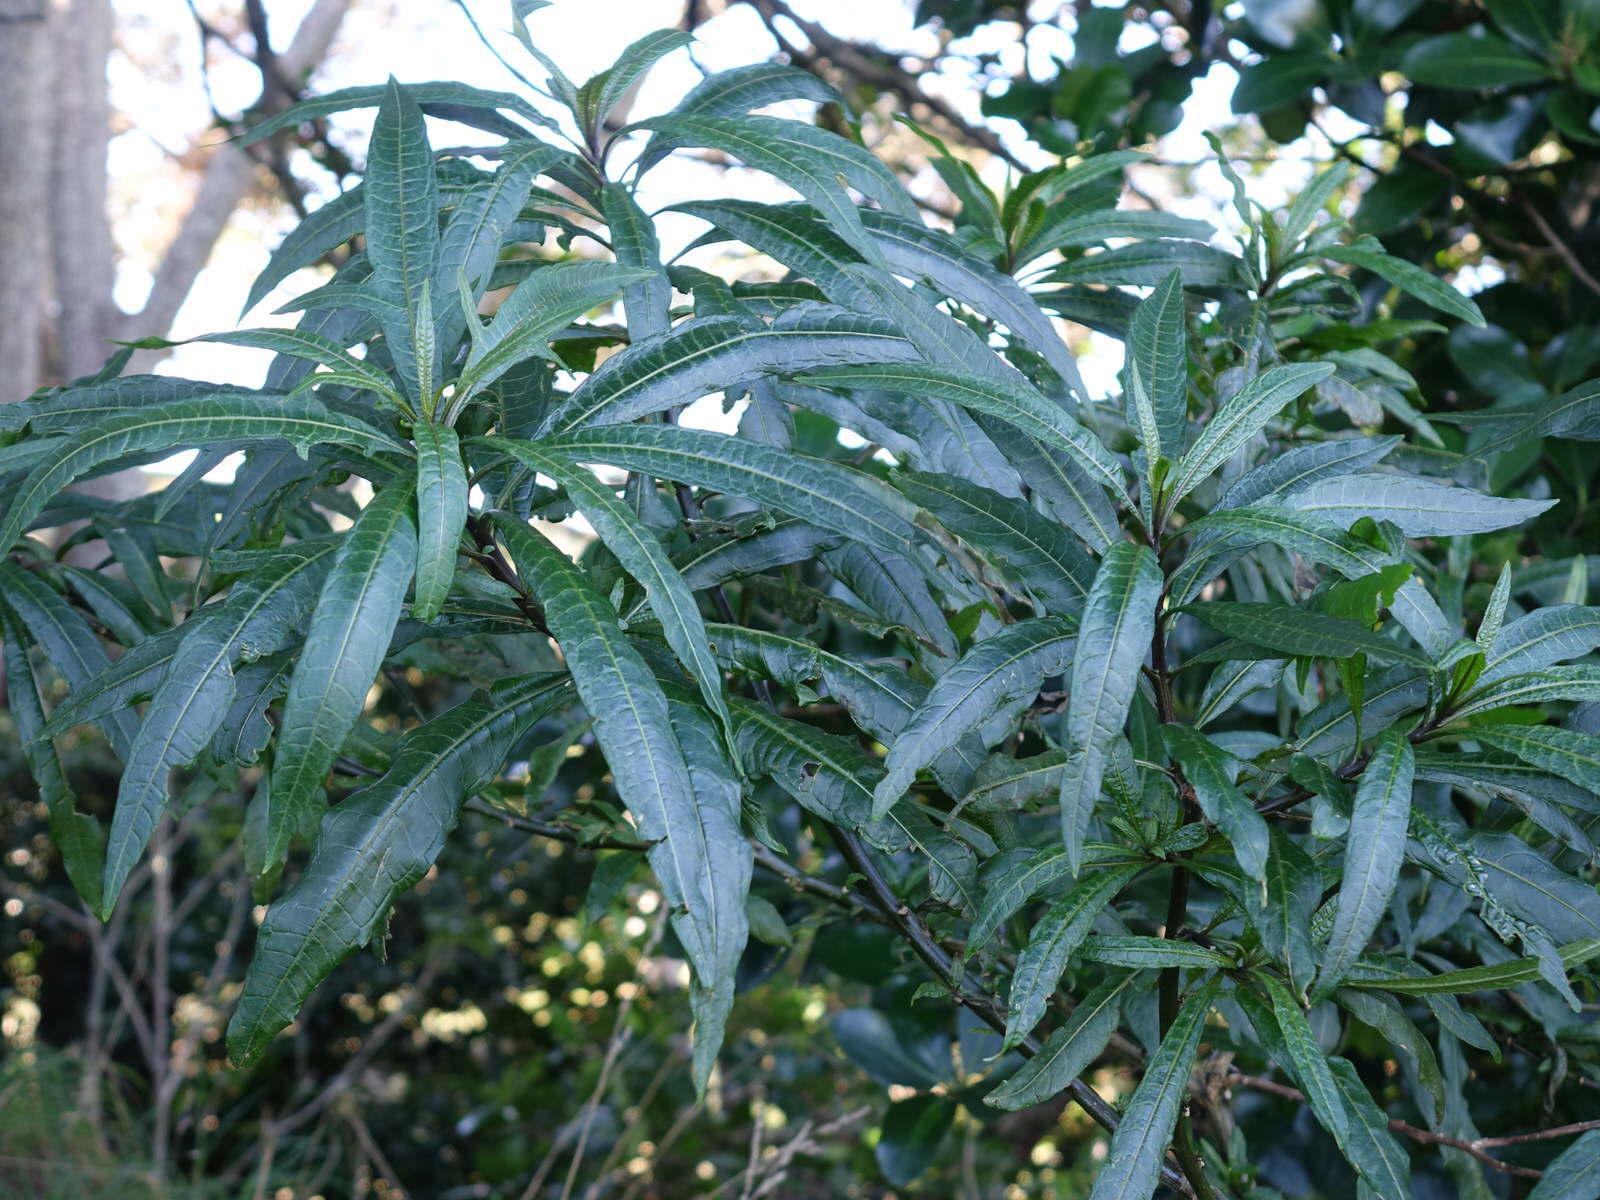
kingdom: Plantae
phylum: Tracheophyta
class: Magnoliopsida
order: Solanales
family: Solanaceae
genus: Solanum
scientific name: Solanum
